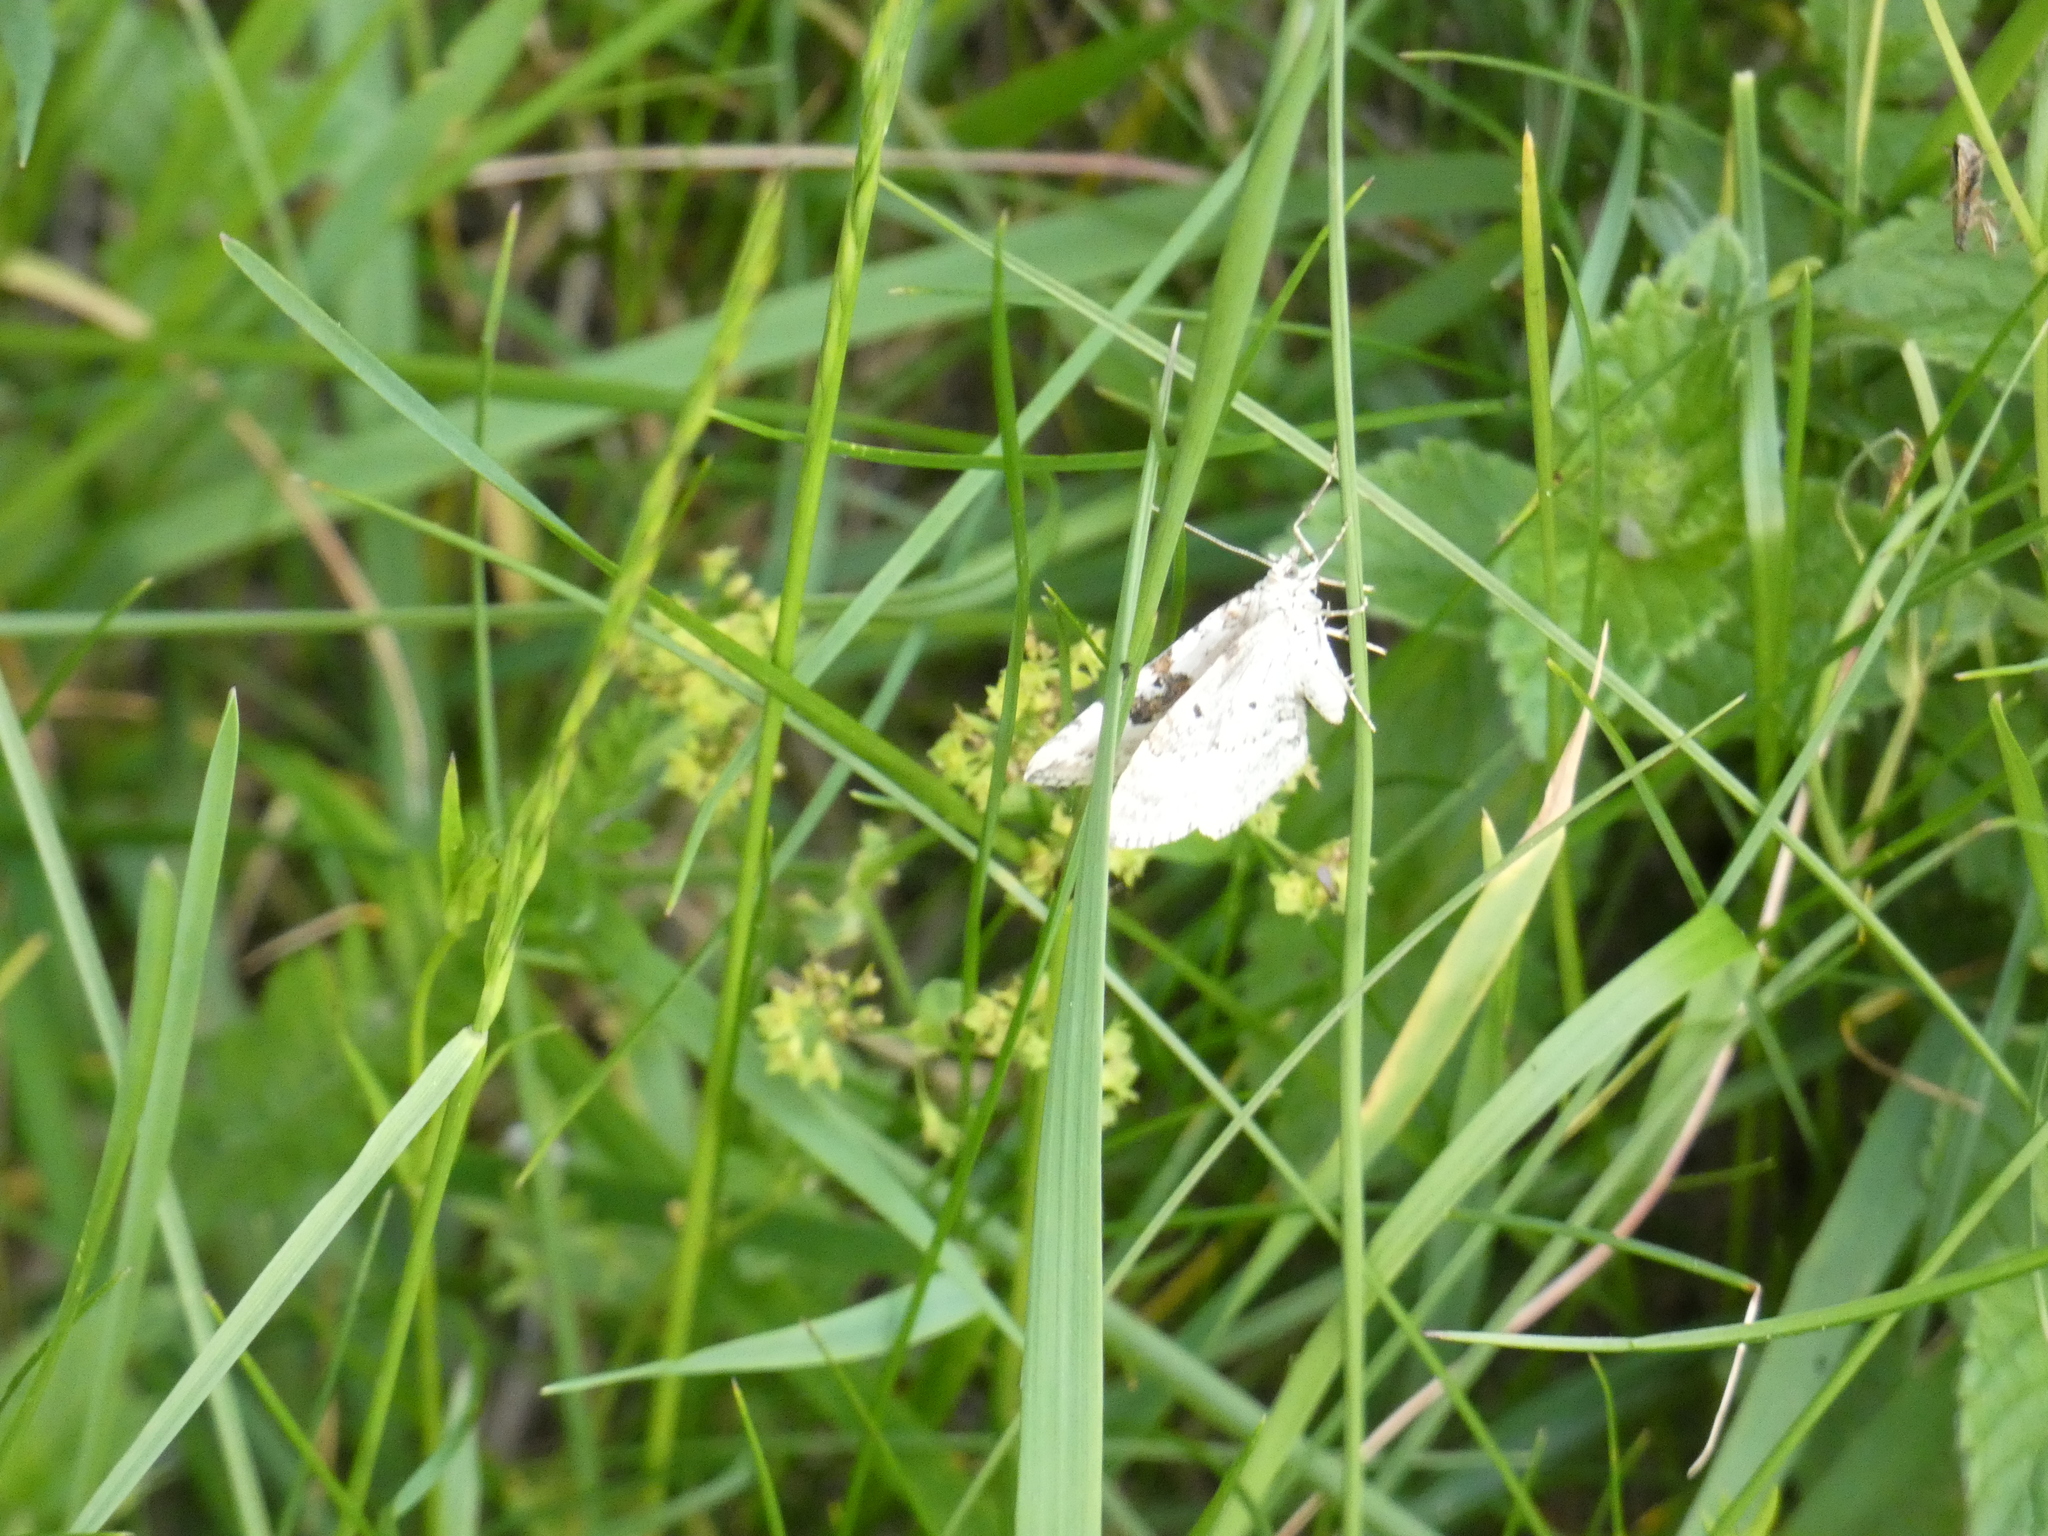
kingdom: Animalia
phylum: Arthropoda
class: Insecta
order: Lepidoptera
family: Geometridae
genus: Xanthorhoe
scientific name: Xanthorhoe montanata
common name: Silver-ground carpet
